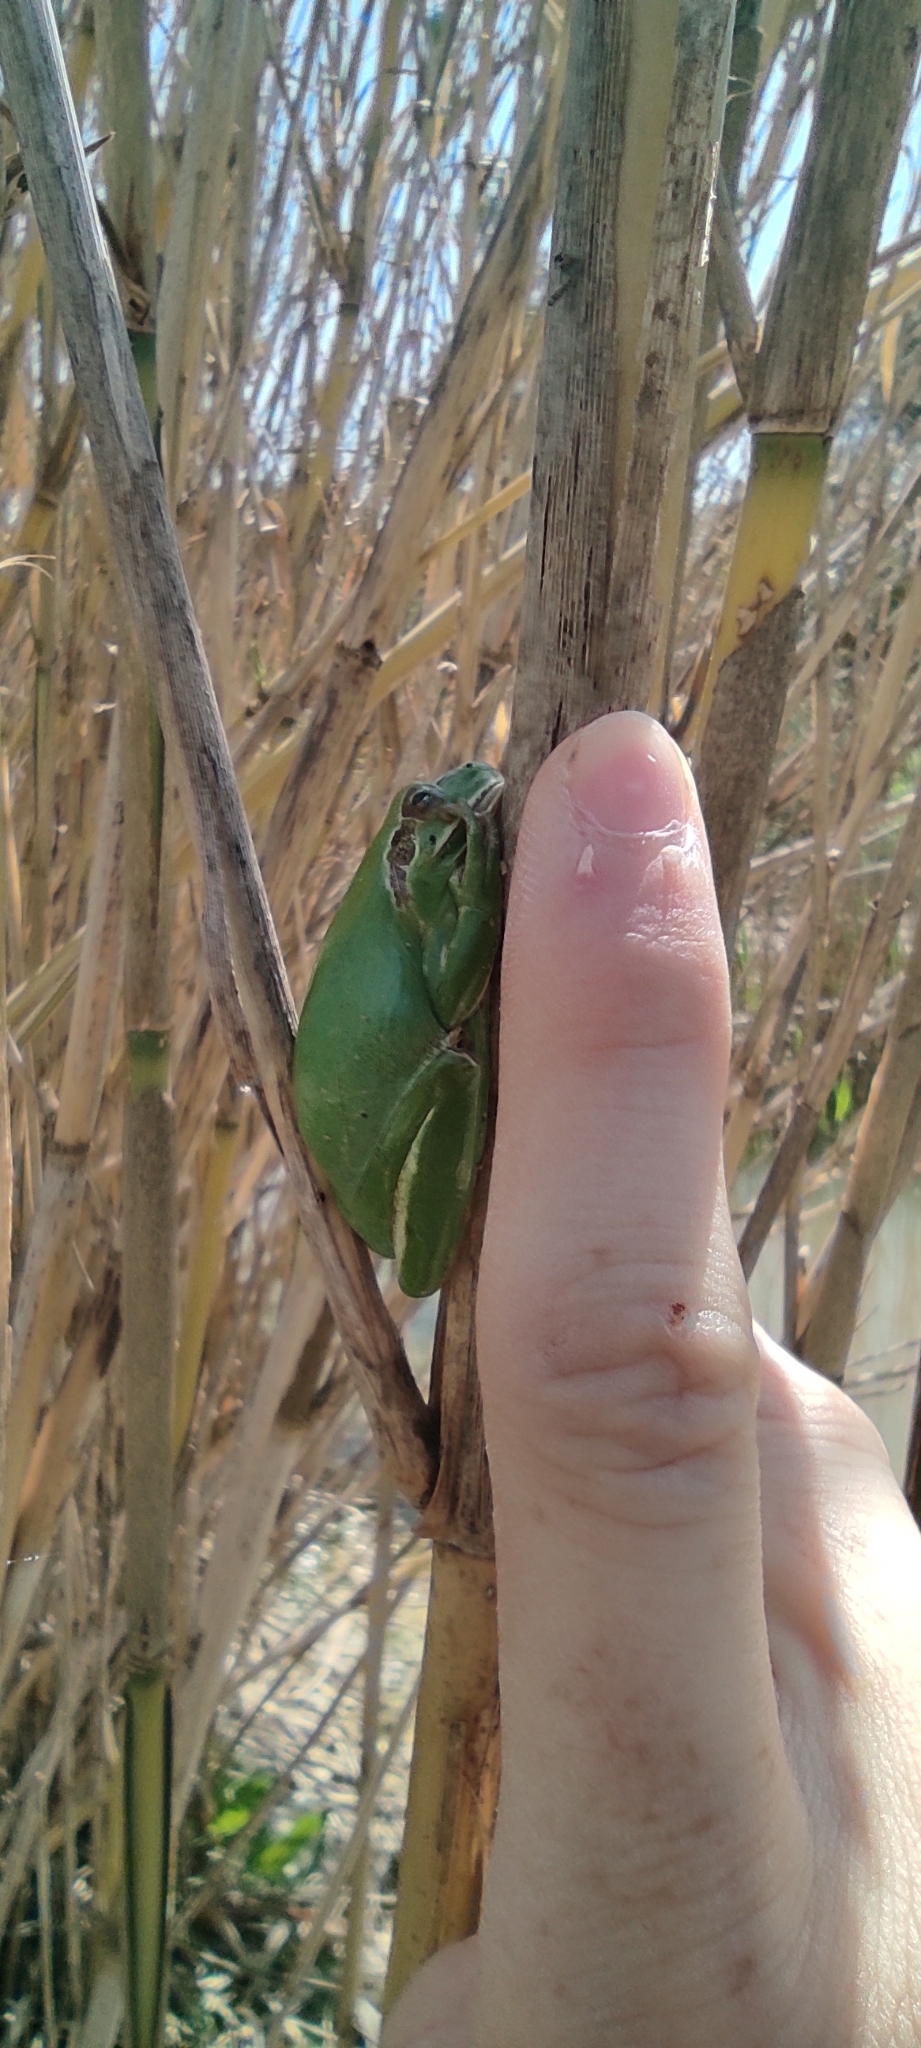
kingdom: Animalia
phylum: Chordata
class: Amphibia
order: Anura
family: Hylidae
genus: Hyla
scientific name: Hyla meridionalis
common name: Stripeless tree frog
